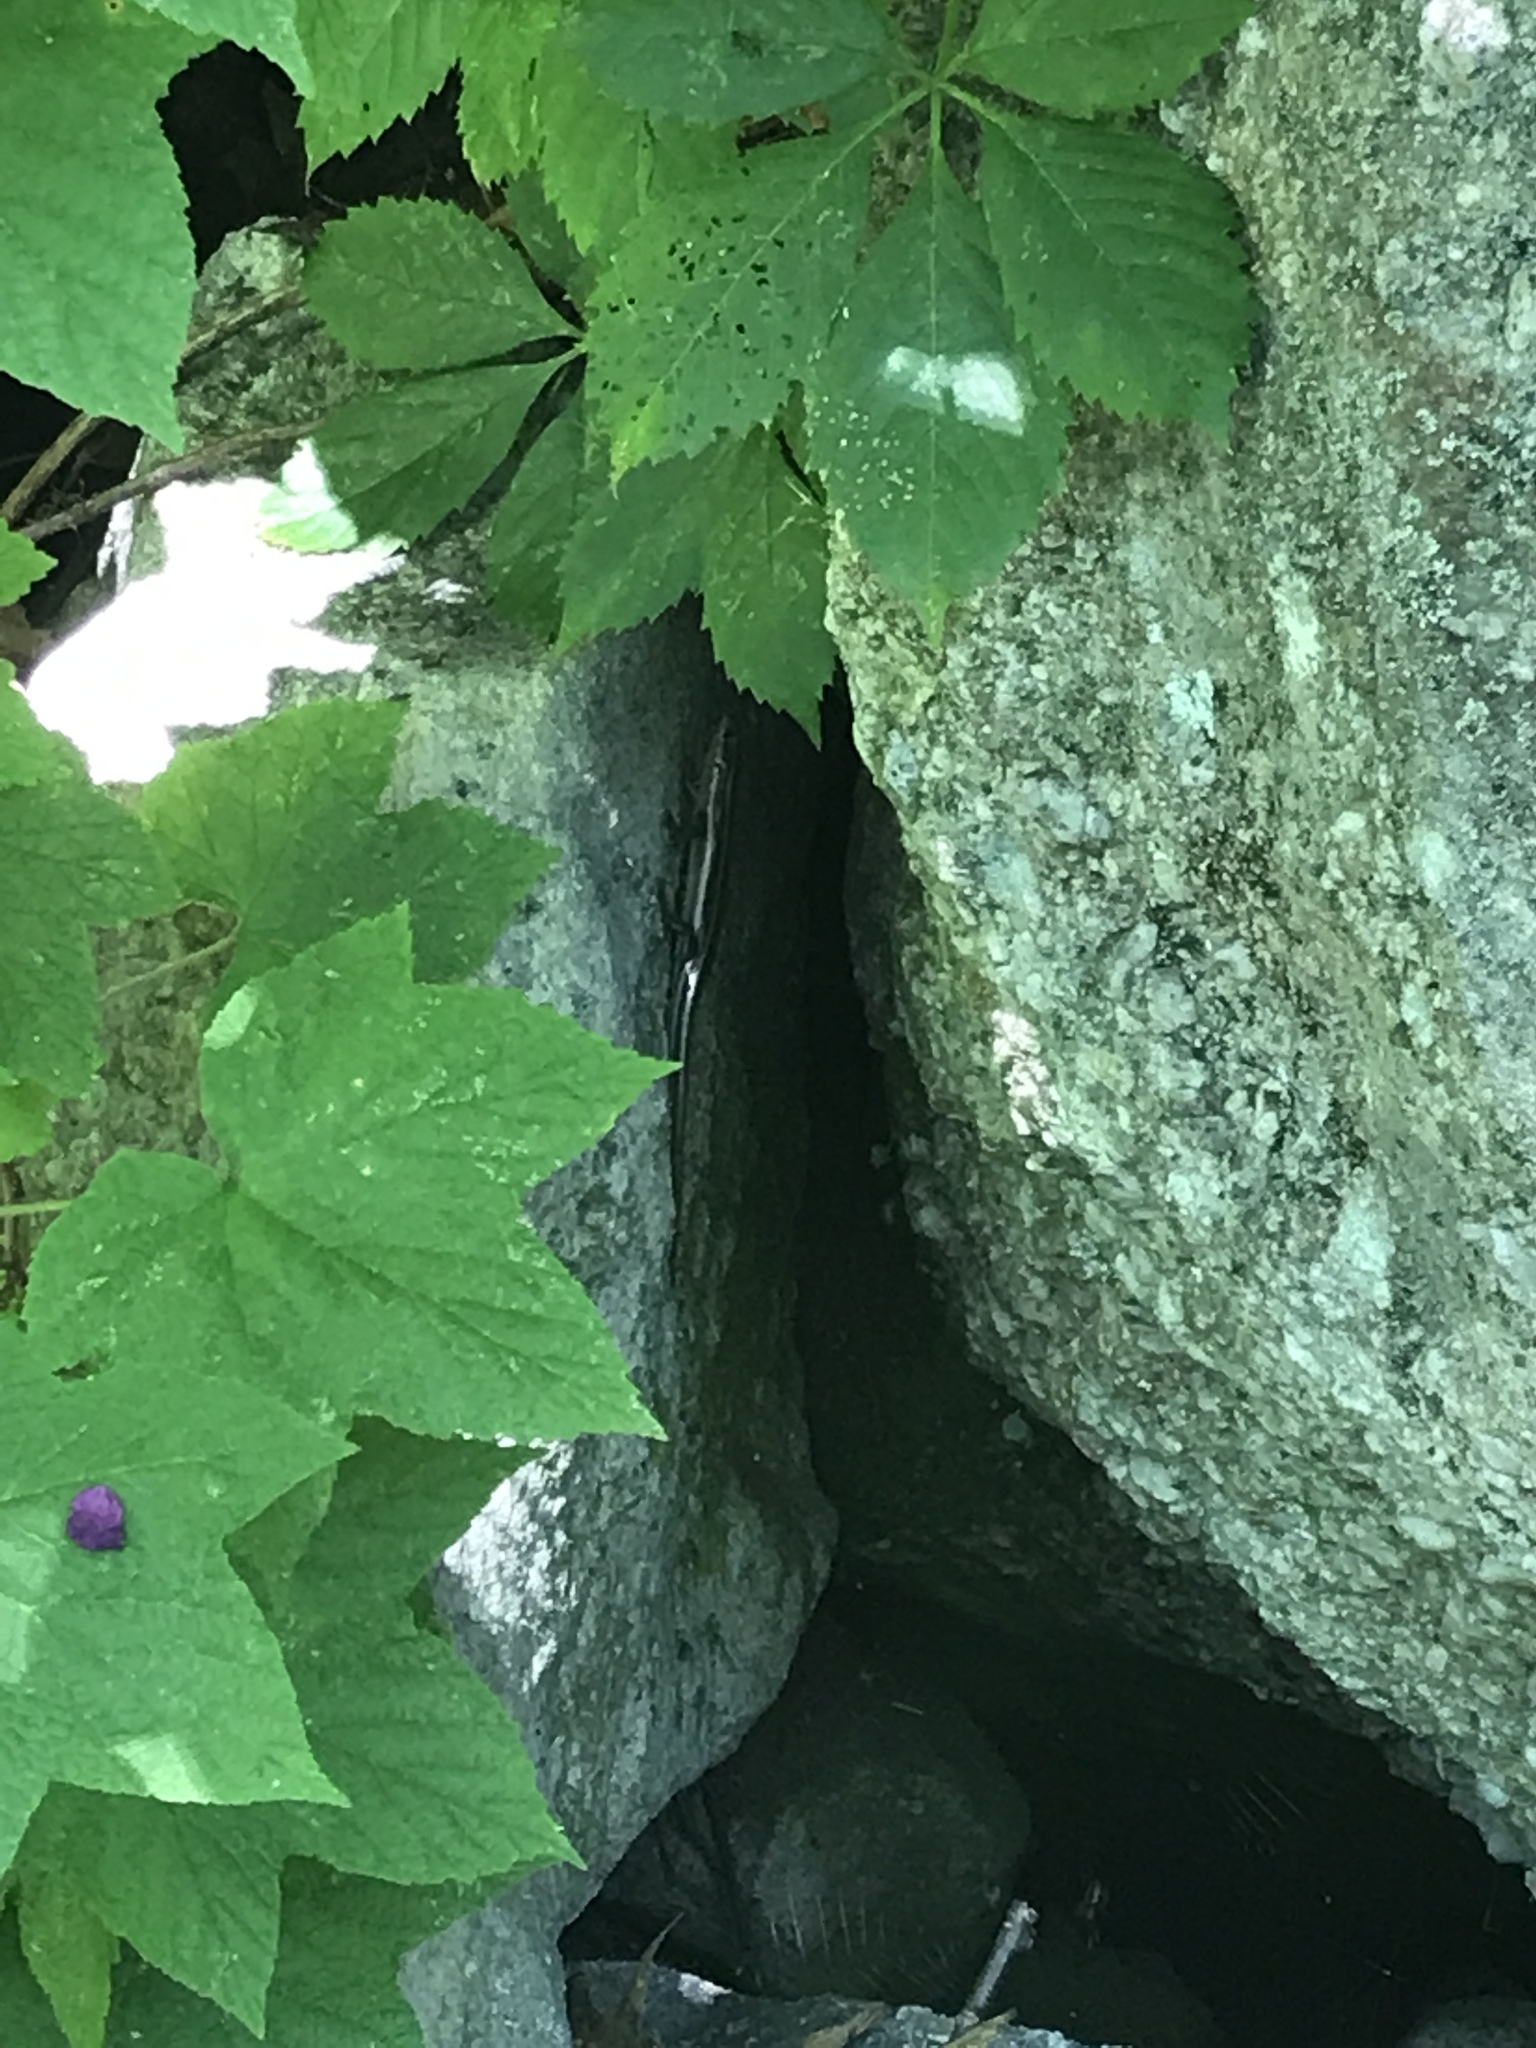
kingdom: Animalia
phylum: Chordata
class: Squamata
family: Scincidae
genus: Plestiodon
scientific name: Plestiodon fasciatus
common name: Five-lined skink
